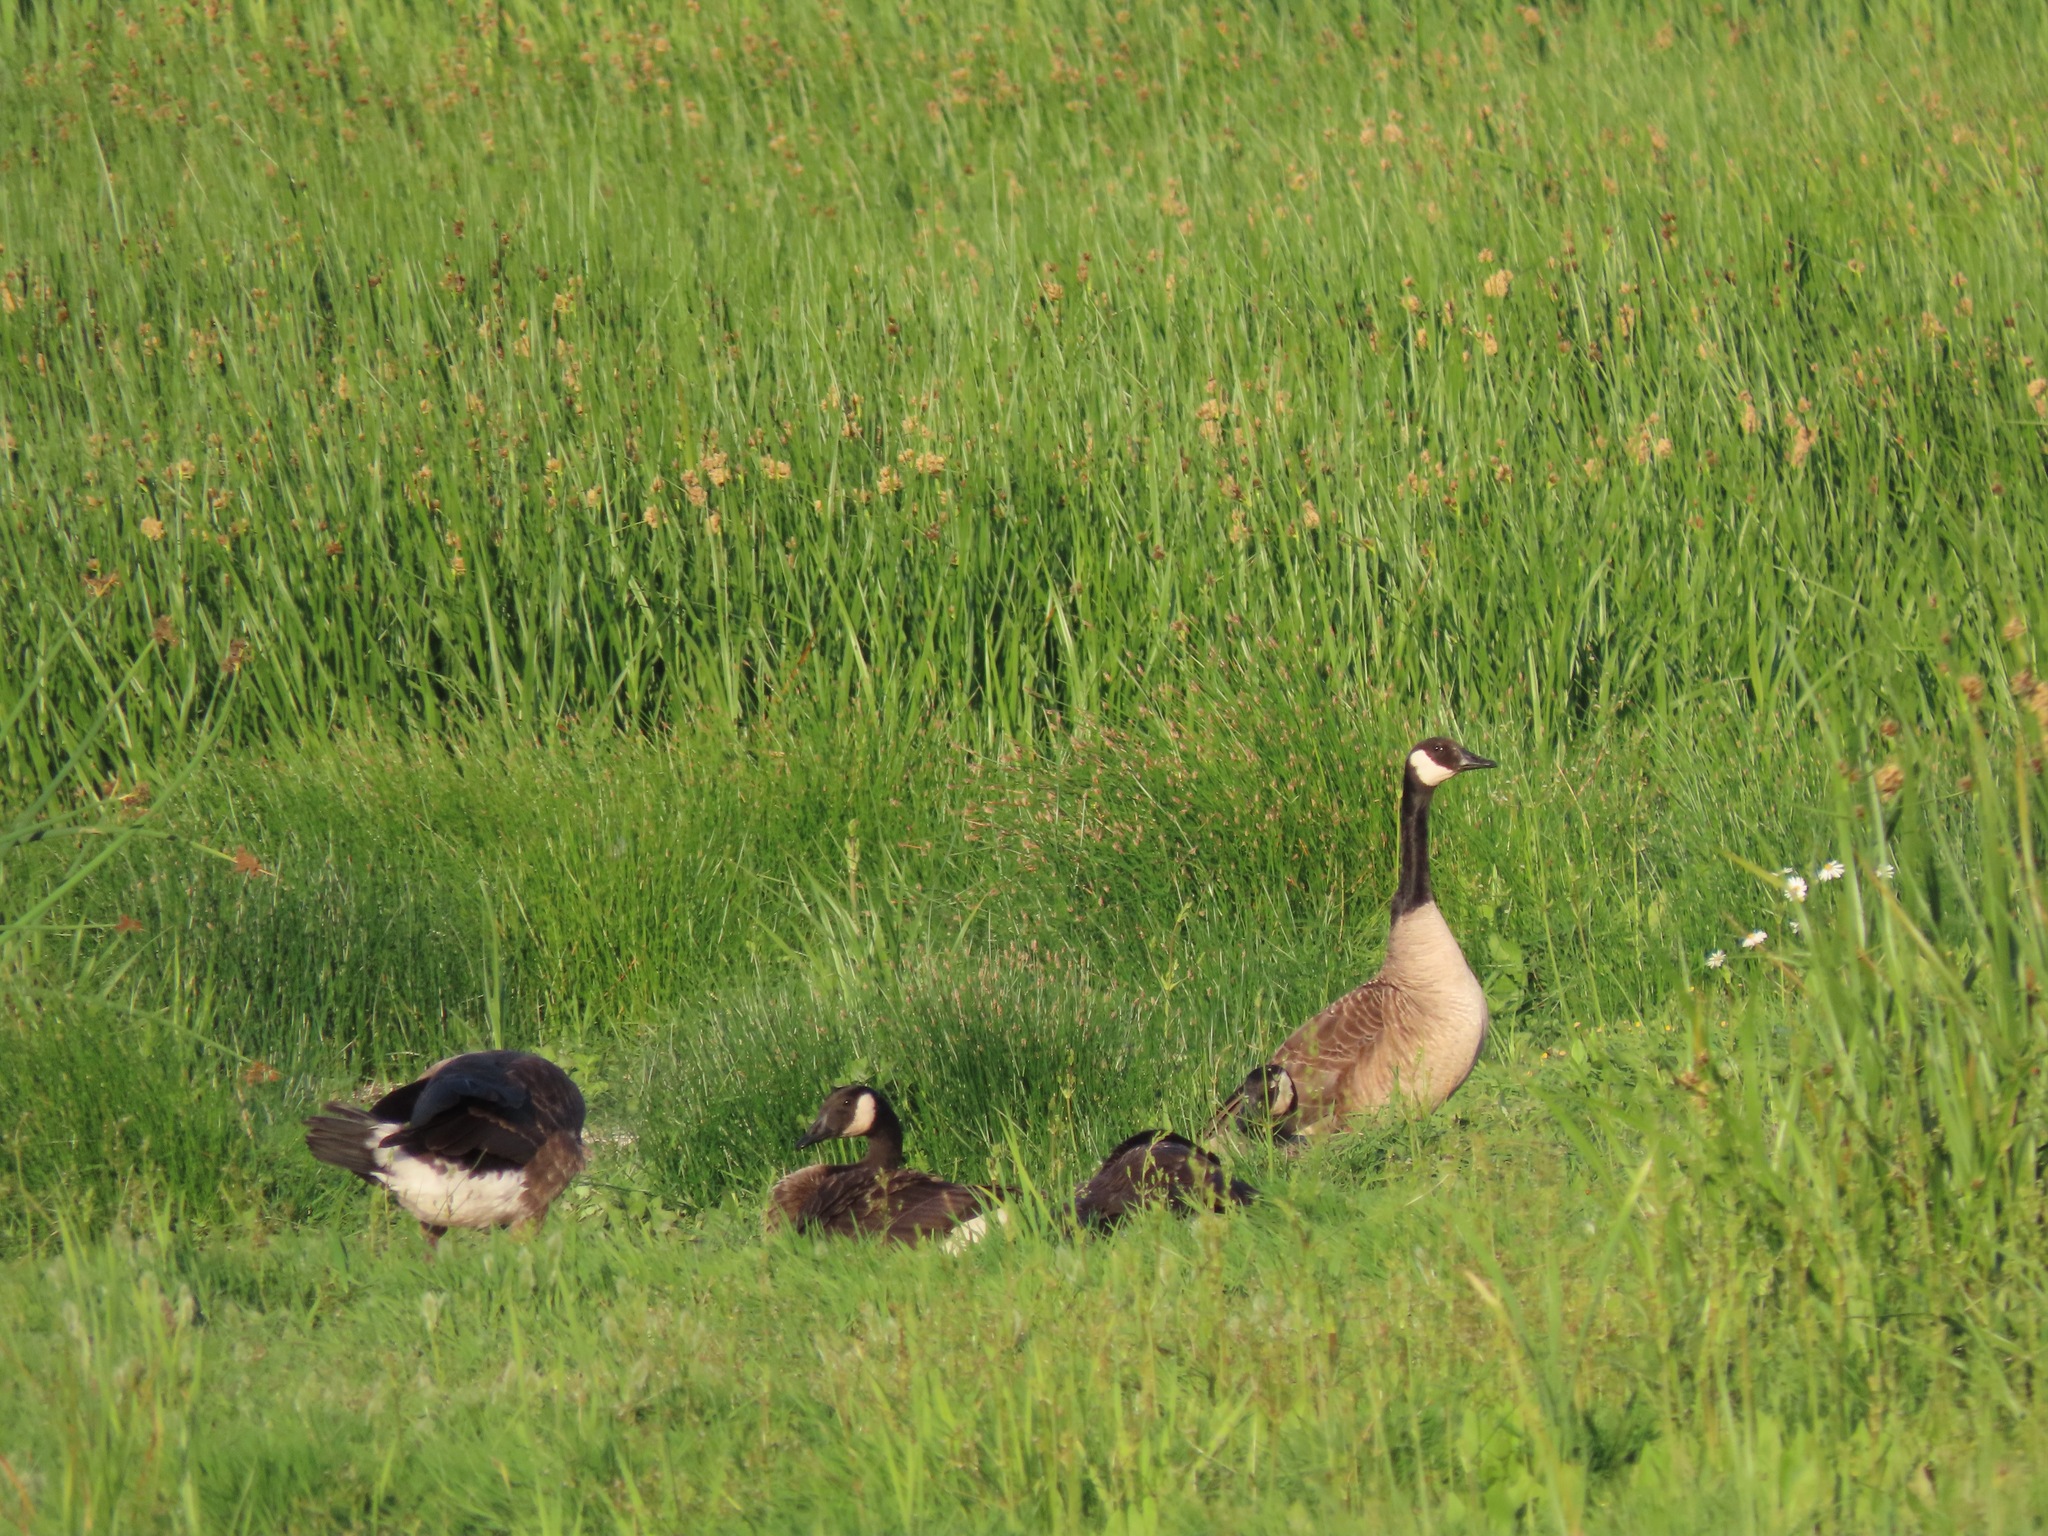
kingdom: Animalia
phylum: Chordata
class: Aves
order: Anseriformes
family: Anatidae
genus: Branta
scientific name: Branta canadensis
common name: Canada goose
